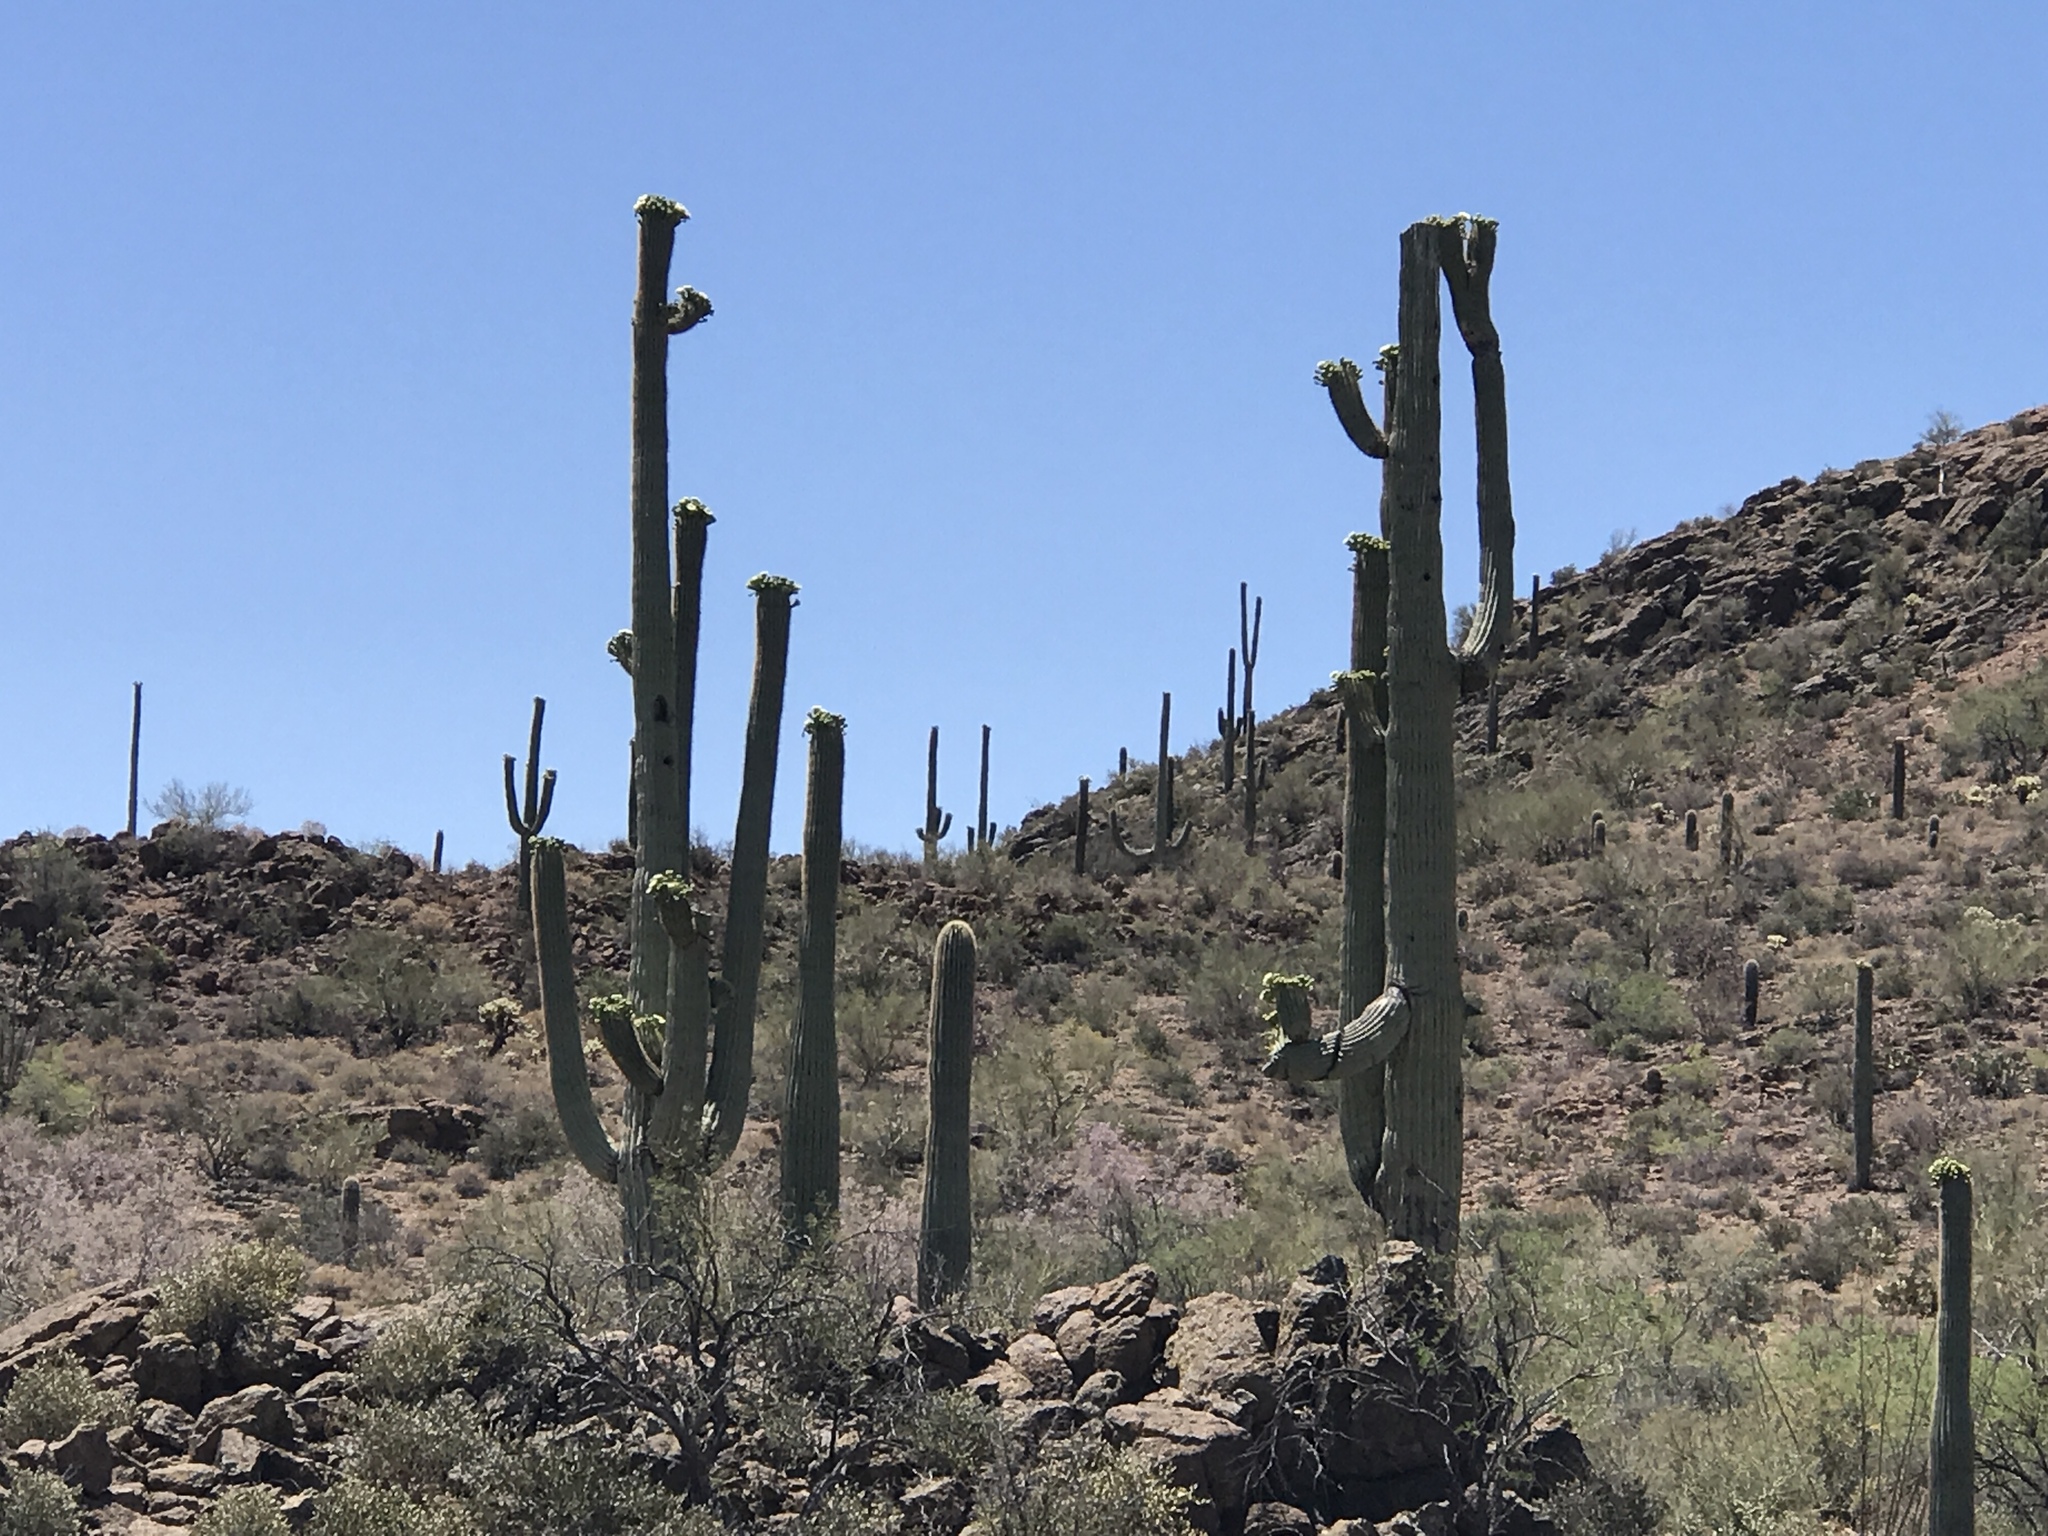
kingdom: Plantae
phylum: Tracheophyta
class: Magnoliopsida
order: Caryophyllales
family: Cactaceae
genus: Carnegiea
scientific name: Carnegiea gigantea
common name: Saguaro
